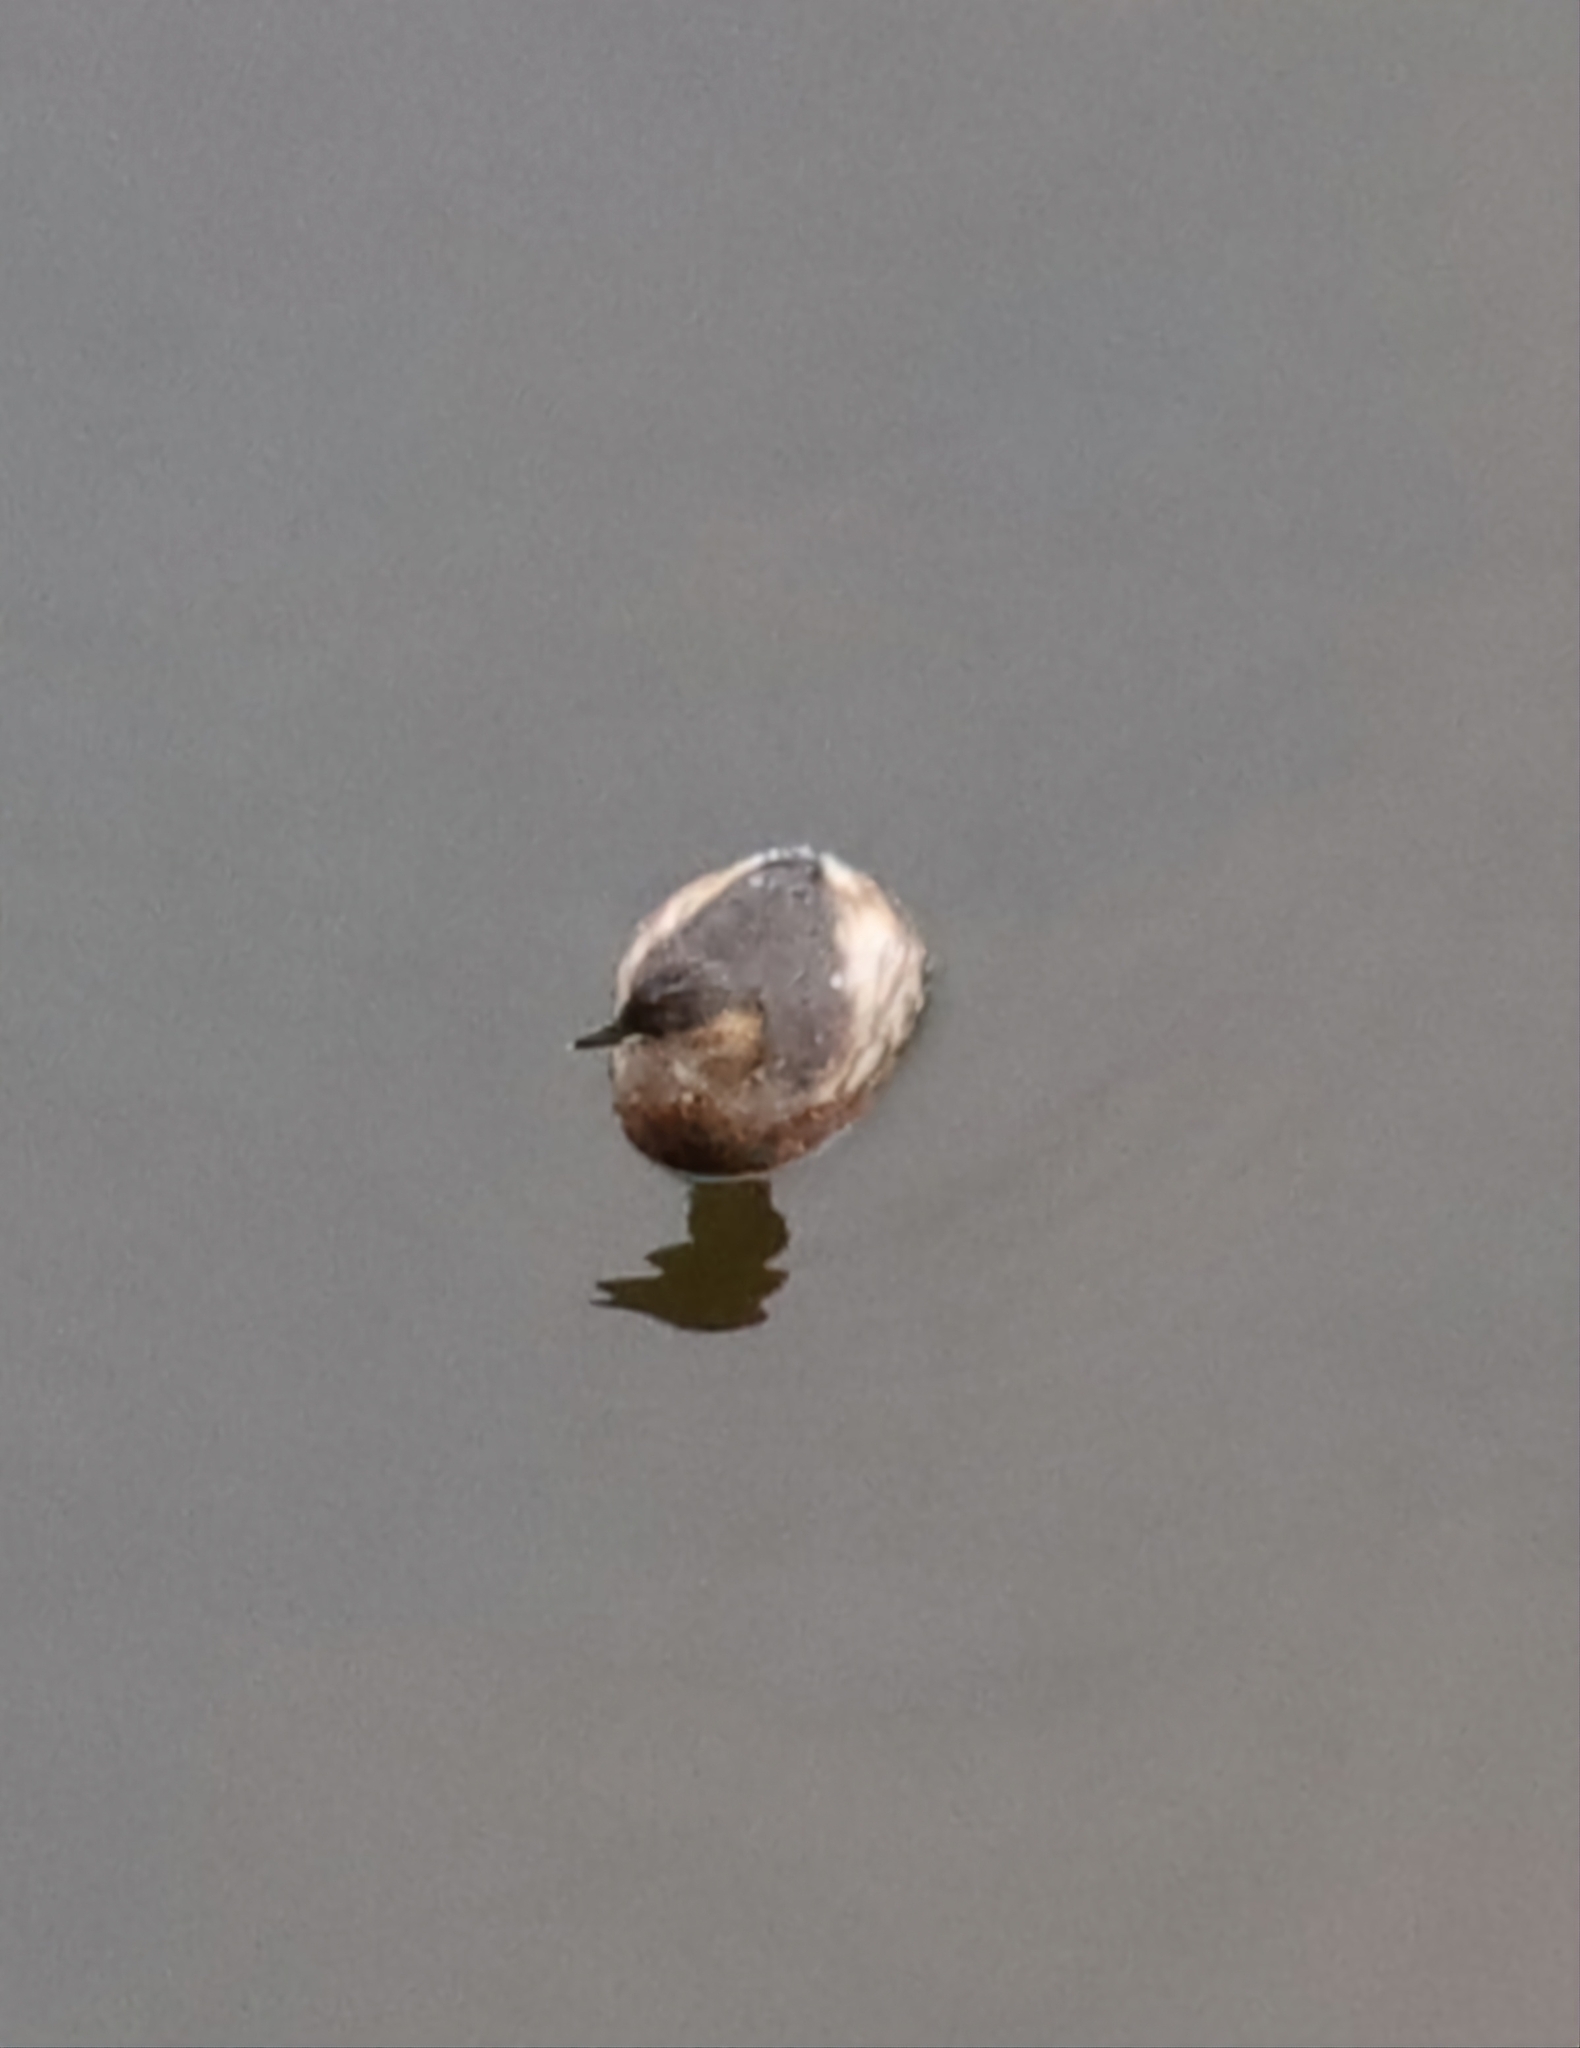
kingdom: Animalia
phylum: Chordata
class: Aves
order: Podicipediformes
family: Podicipedidae
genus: Tachybaptus
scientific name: Tachybaptus ruficollis
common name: Little grebe
